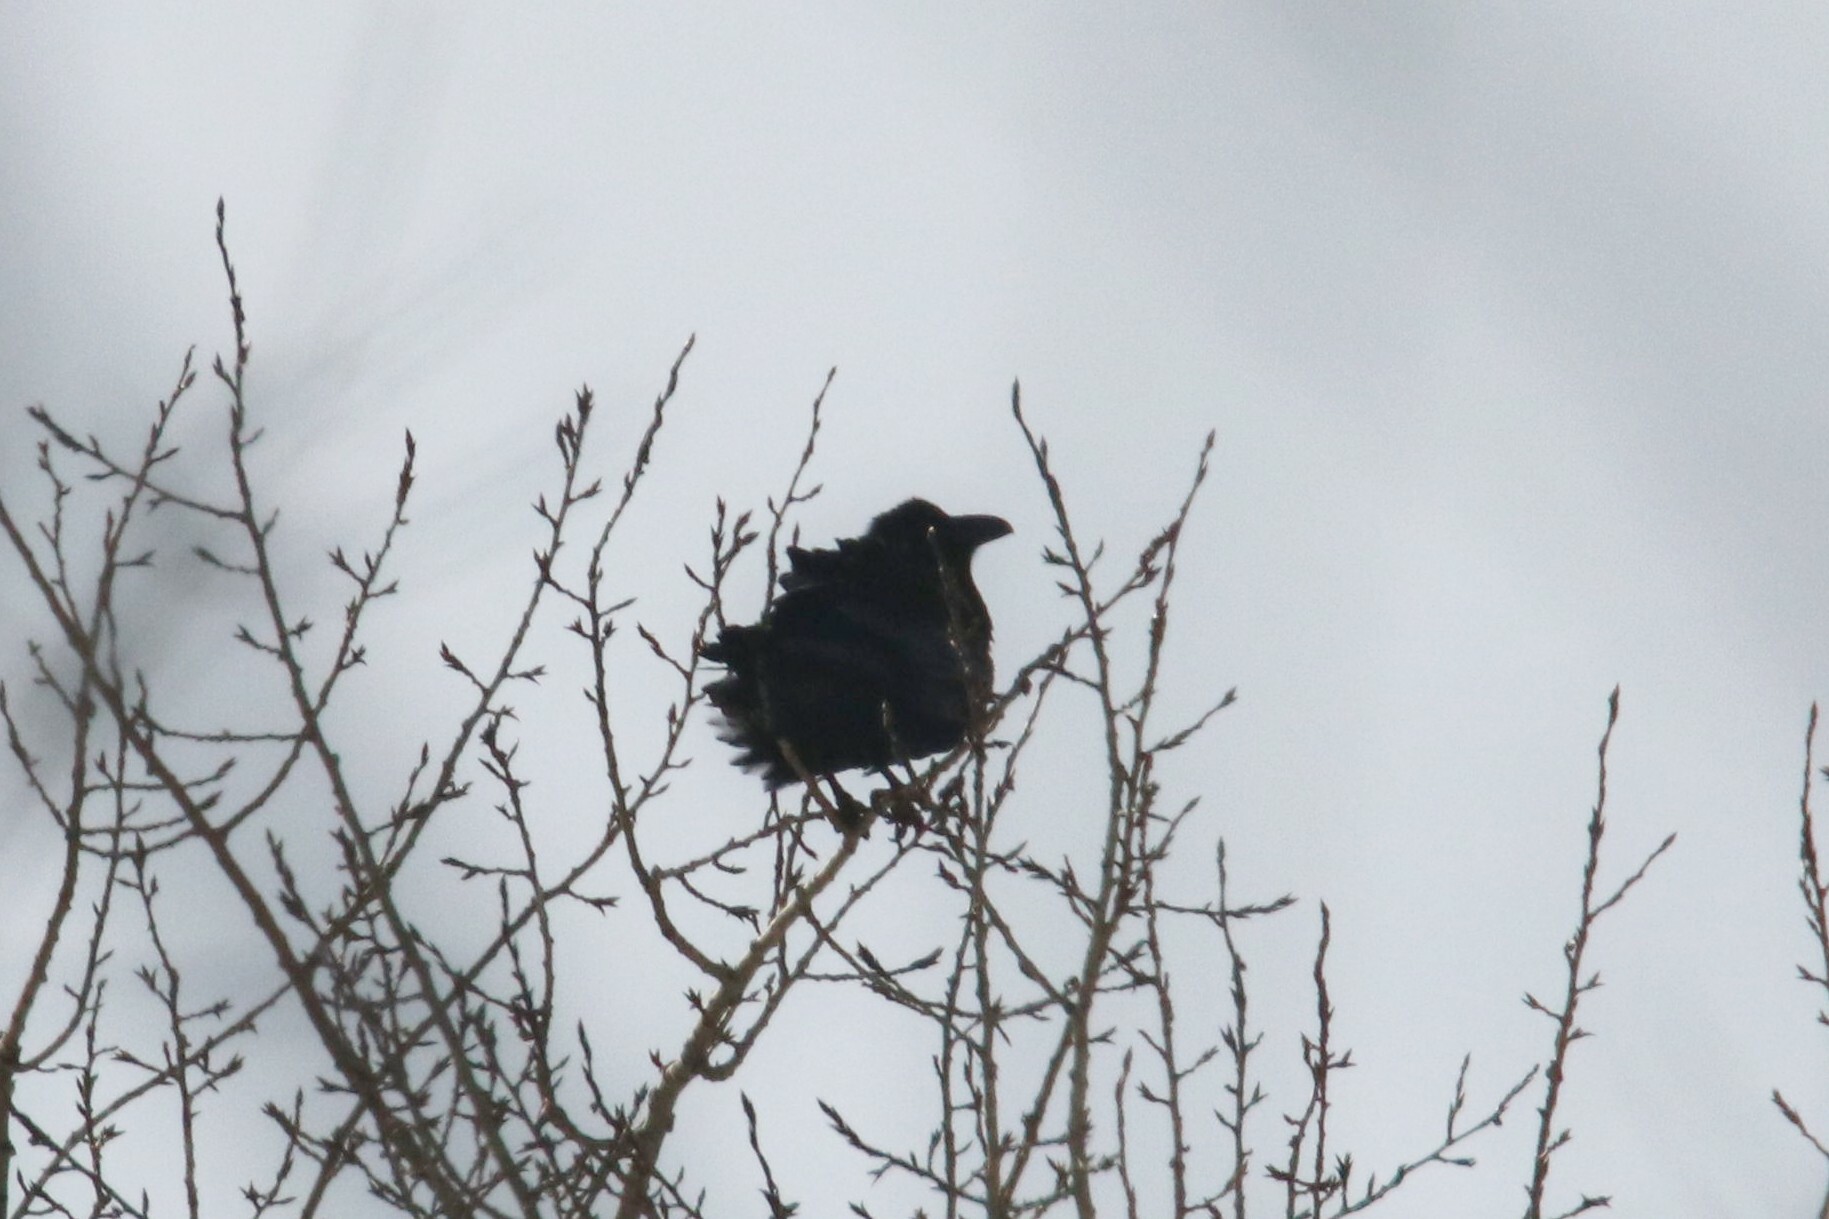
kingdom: Animalia
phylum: Chordata
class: Aves
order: Passeriformes
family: Corvidae
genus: Corvus
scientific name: Corvus corax
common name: Common raven
